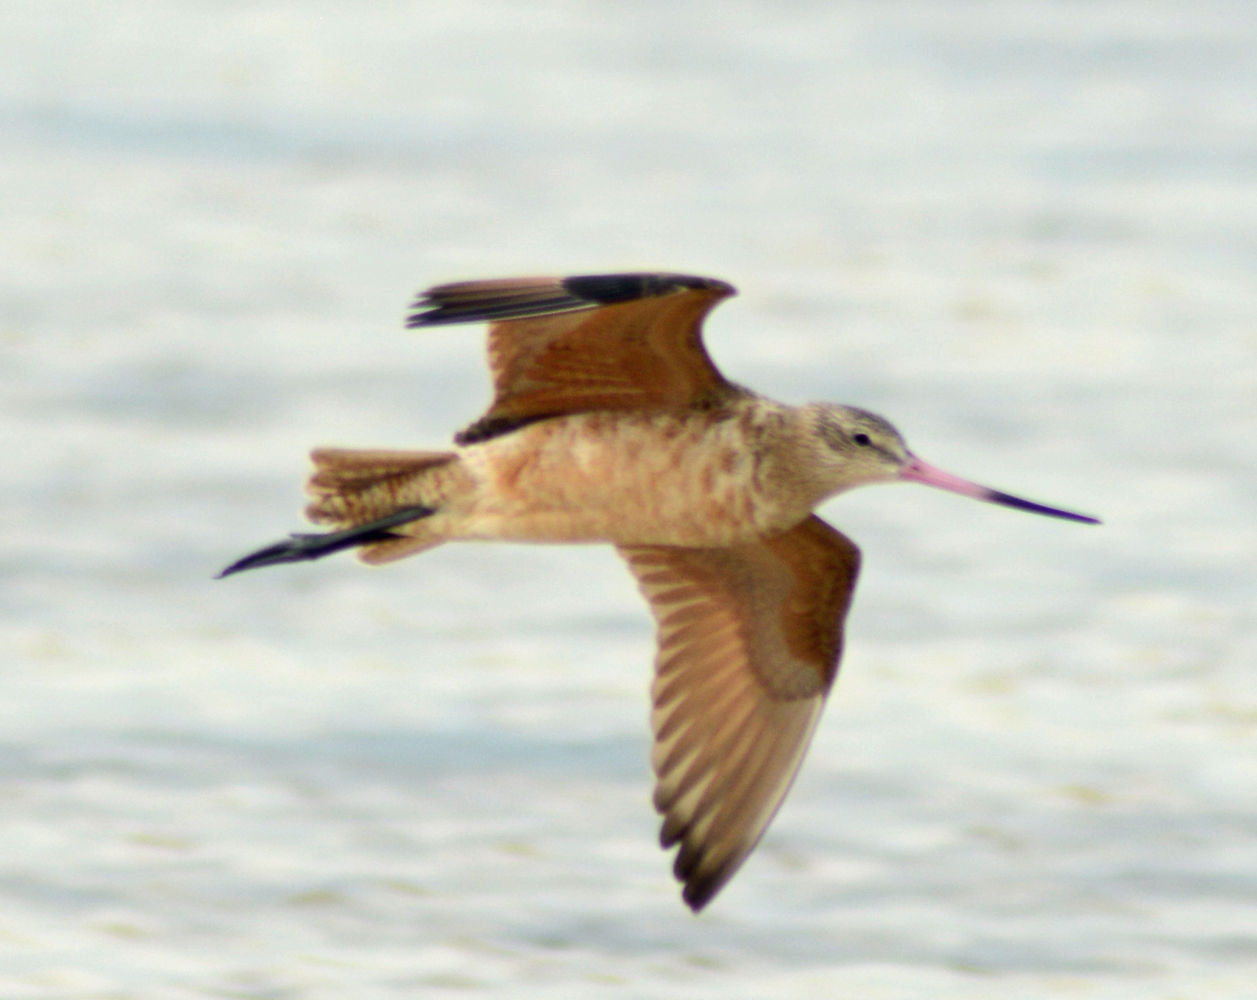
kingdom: Animalia
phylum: Chordata
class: Aves
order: Charadriiformes
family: Scolopacidae
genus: Limosa
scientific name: Limosa fedoa
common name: Marbled godwit
